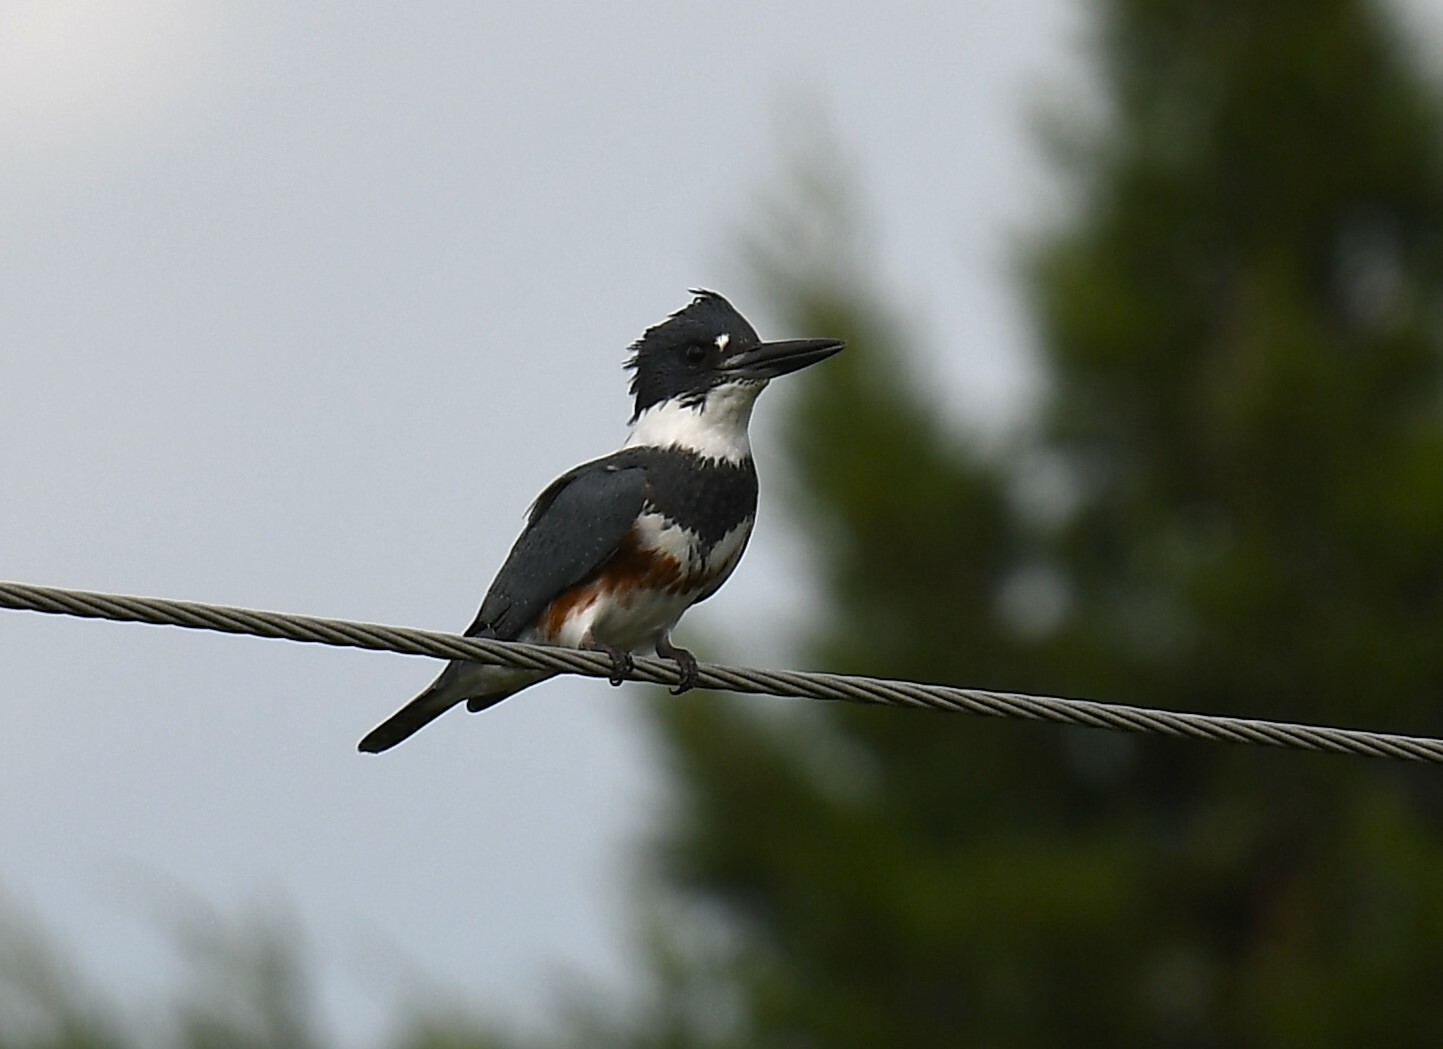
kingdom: Animalia
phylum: Chordata
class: Aves
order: Coraciiformes
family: Alcedinidae
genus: Megaceryle
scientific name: Megaceryle alcyon
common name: Belted kingfisher
